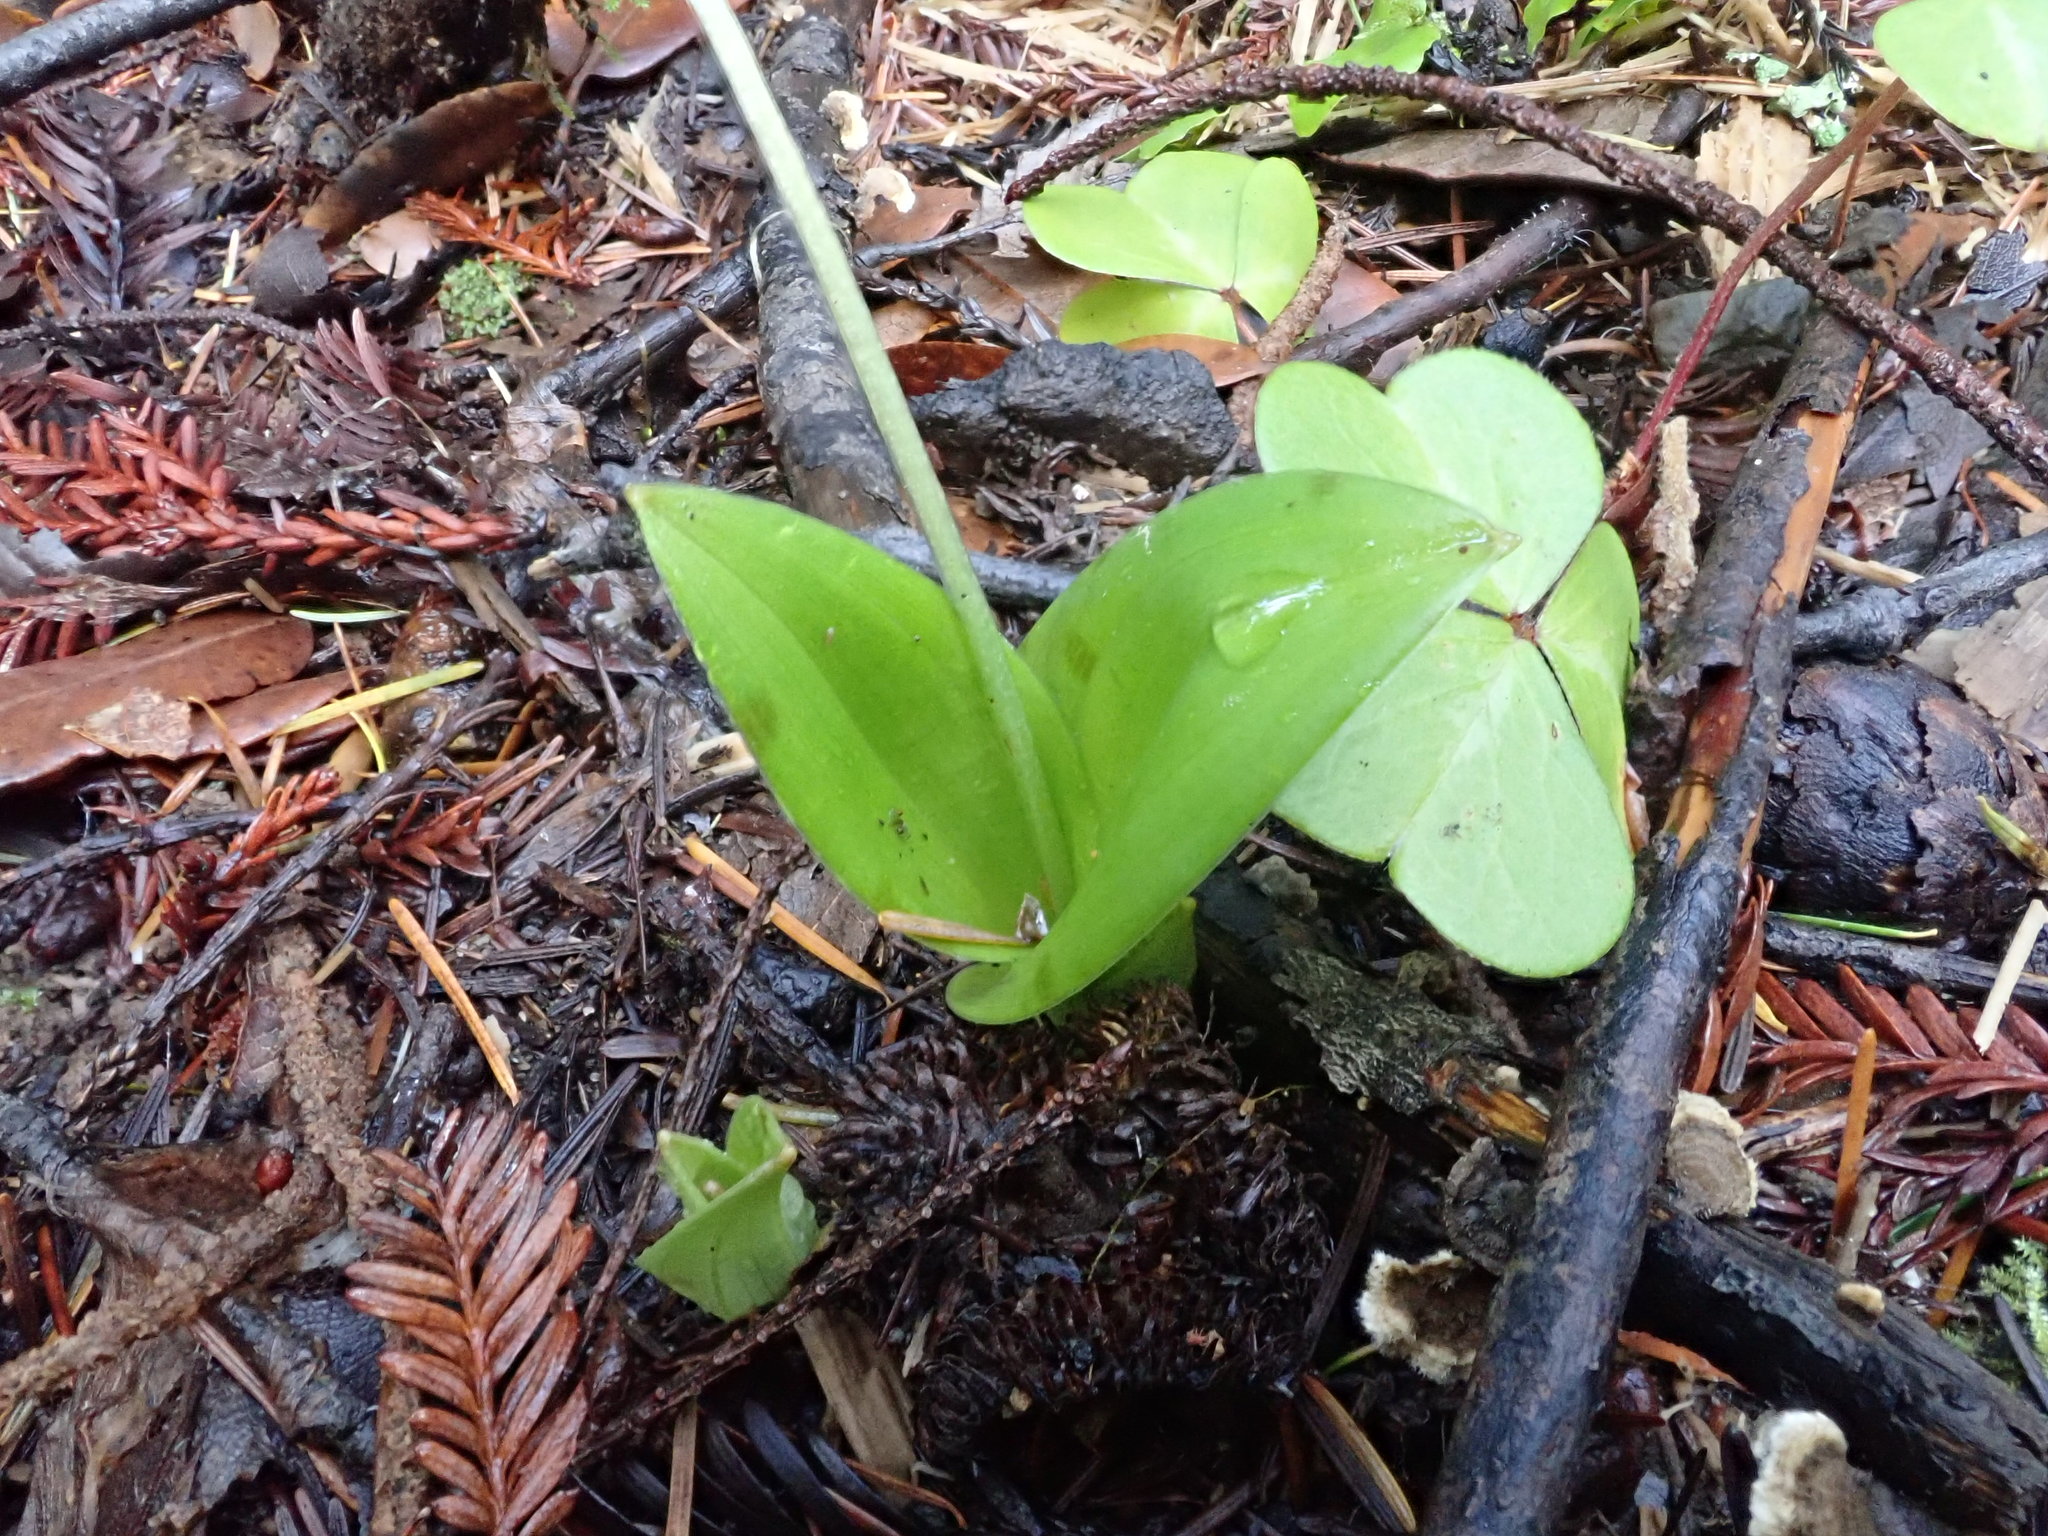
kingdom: Plantae
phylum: Tracheophyta
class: Liliopsida
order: Liliales
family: Liliaceae
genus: Scoliopus
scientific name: Scoliopus bigelovii
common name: Foetid adder's-tongue
